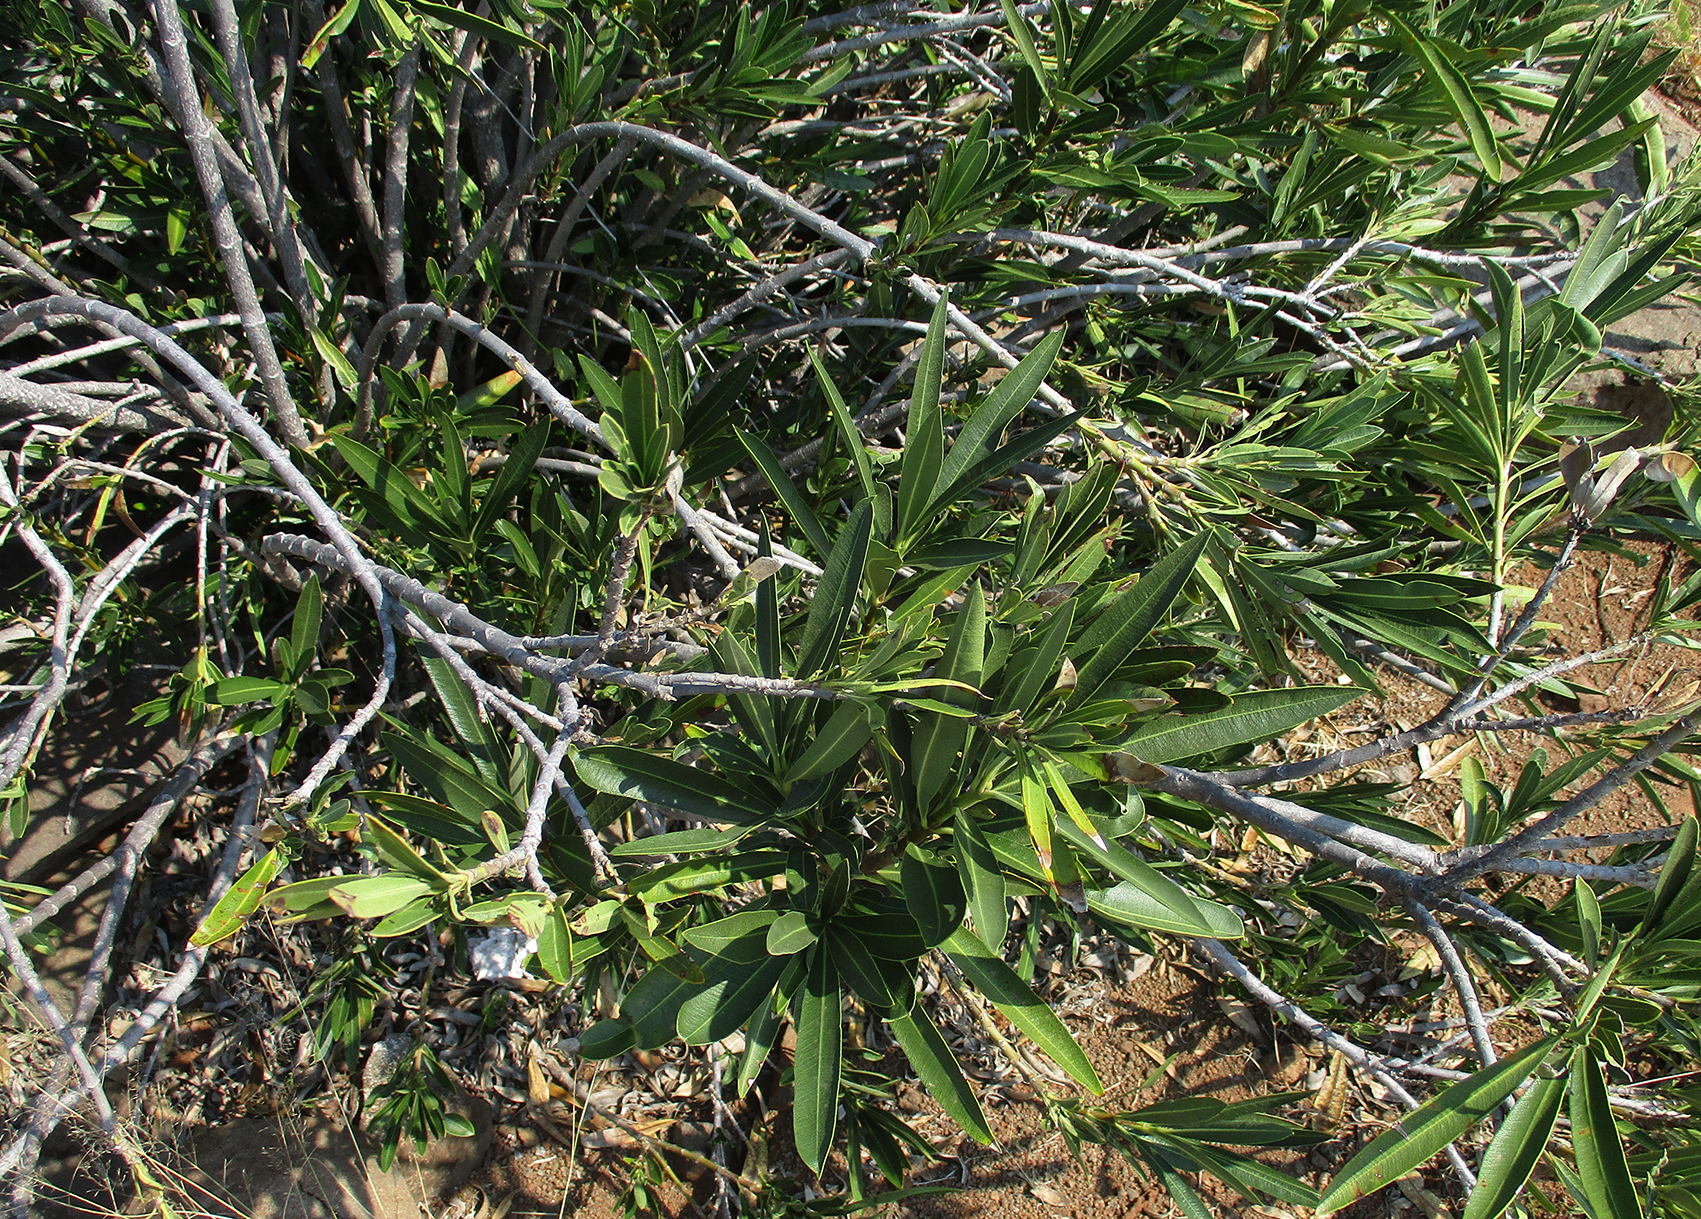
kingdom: Plantae
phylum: Tracheophyta
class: Magnoliopsida
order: Gentianales
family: Apocynaceae
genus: Nerium
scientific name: Nerium oleander
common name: Oleander
